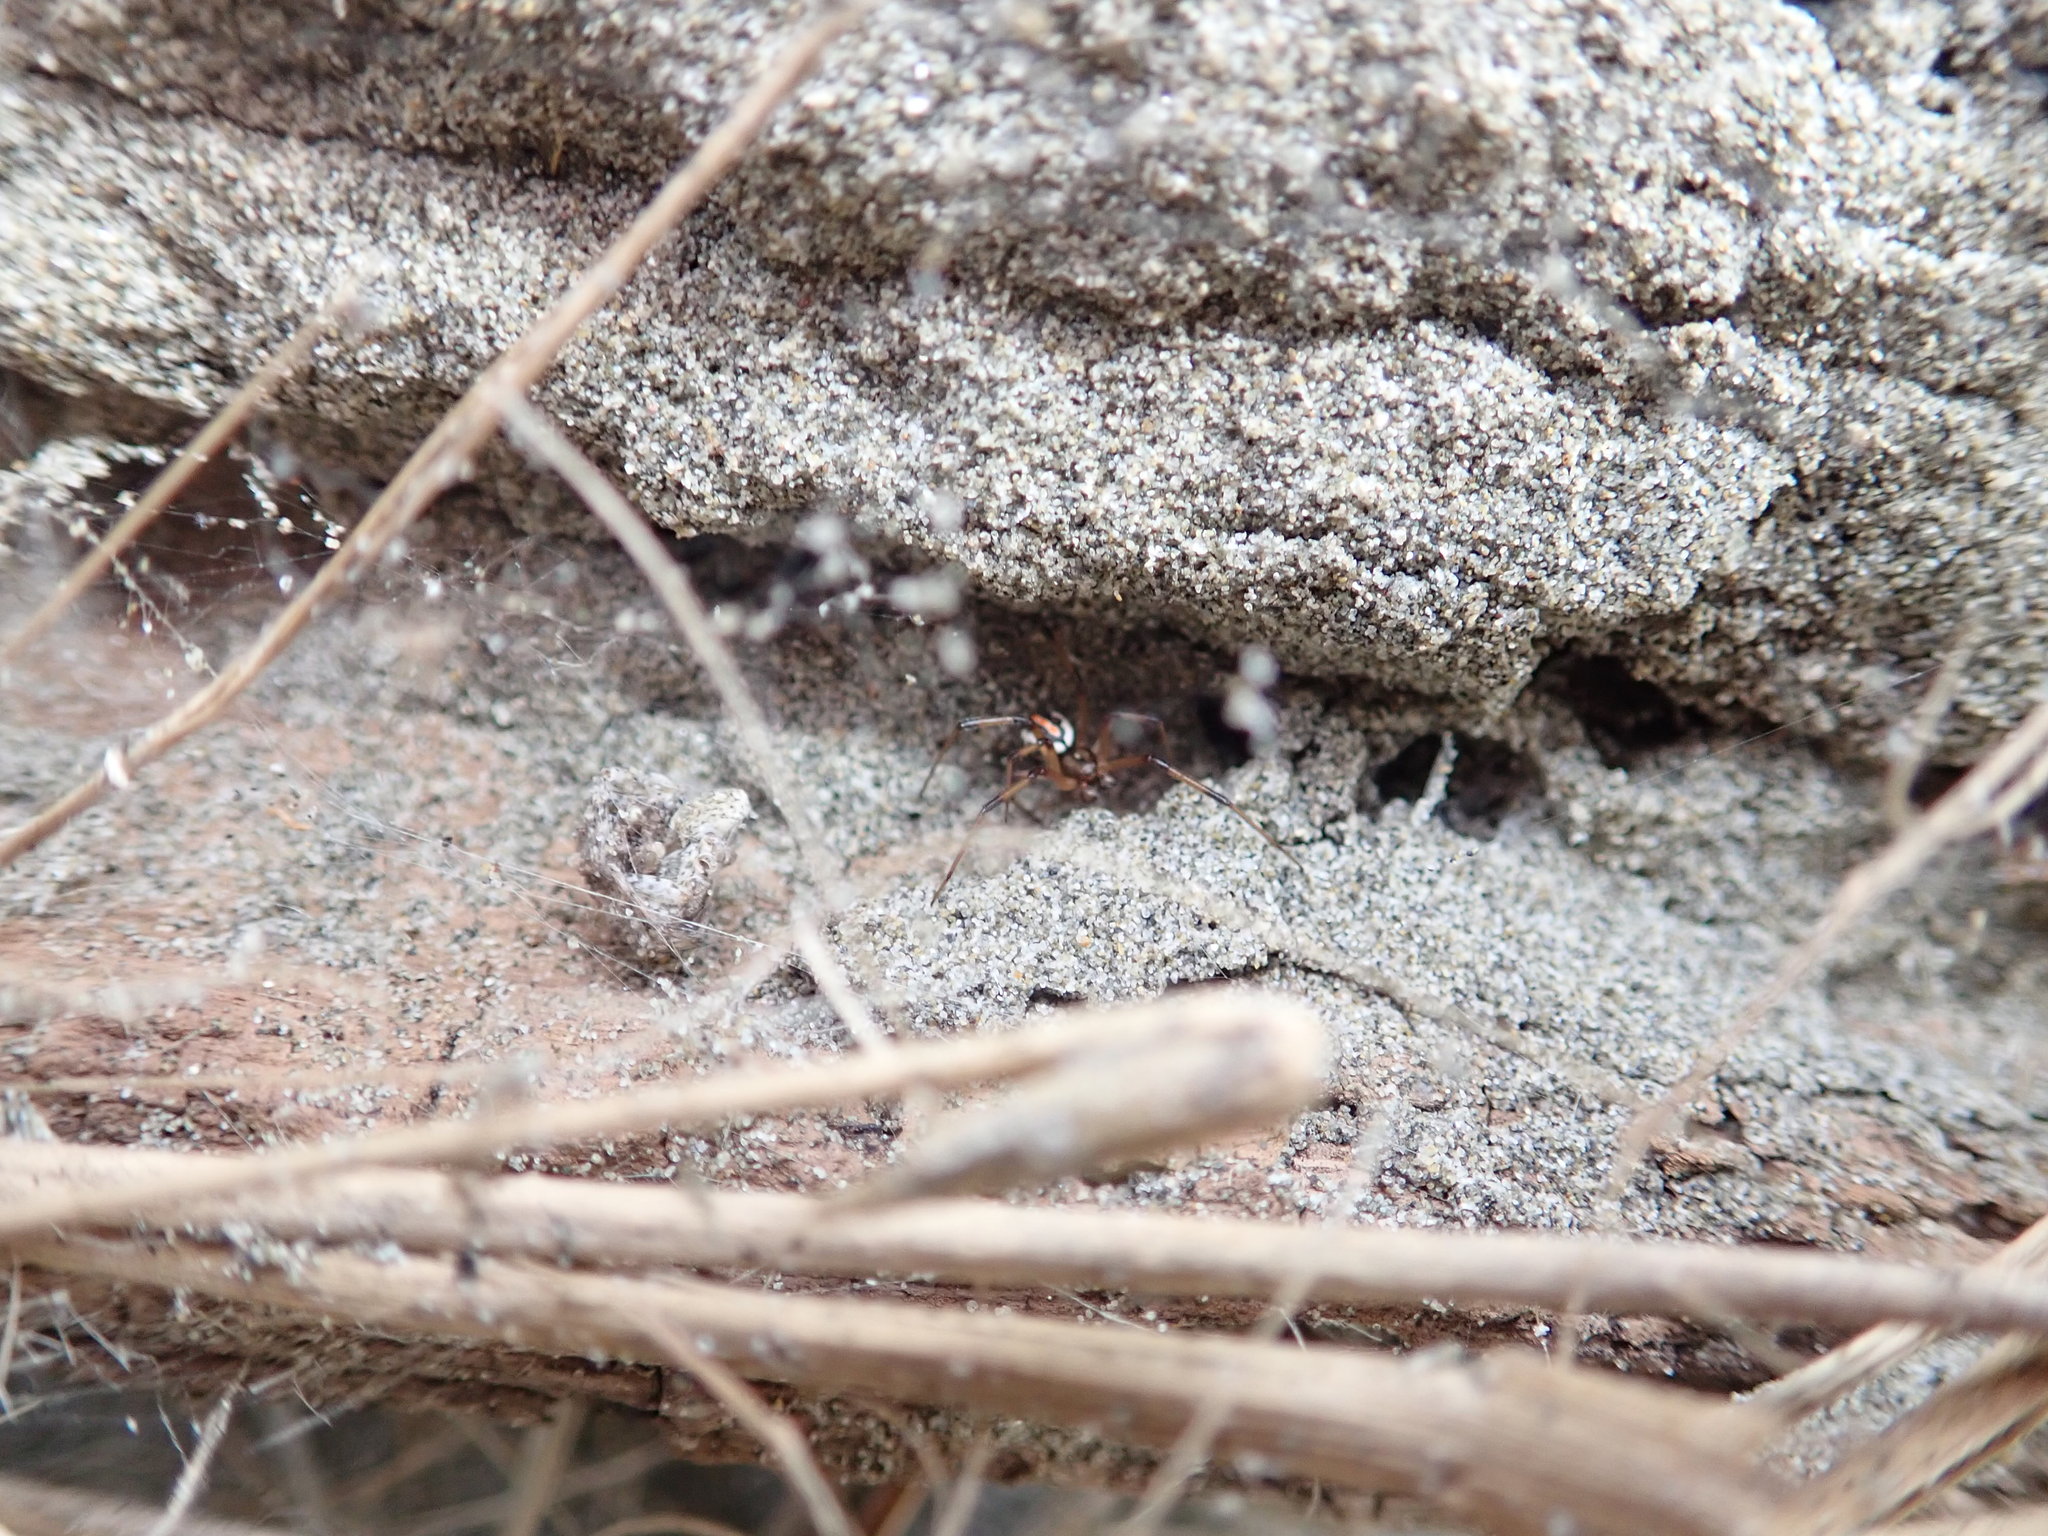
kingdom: Animalia
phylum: Arthropoda
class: Arachnida
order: Araneae
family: Theridiidae
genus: Latrodectus
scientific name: Latrodectus katipo
